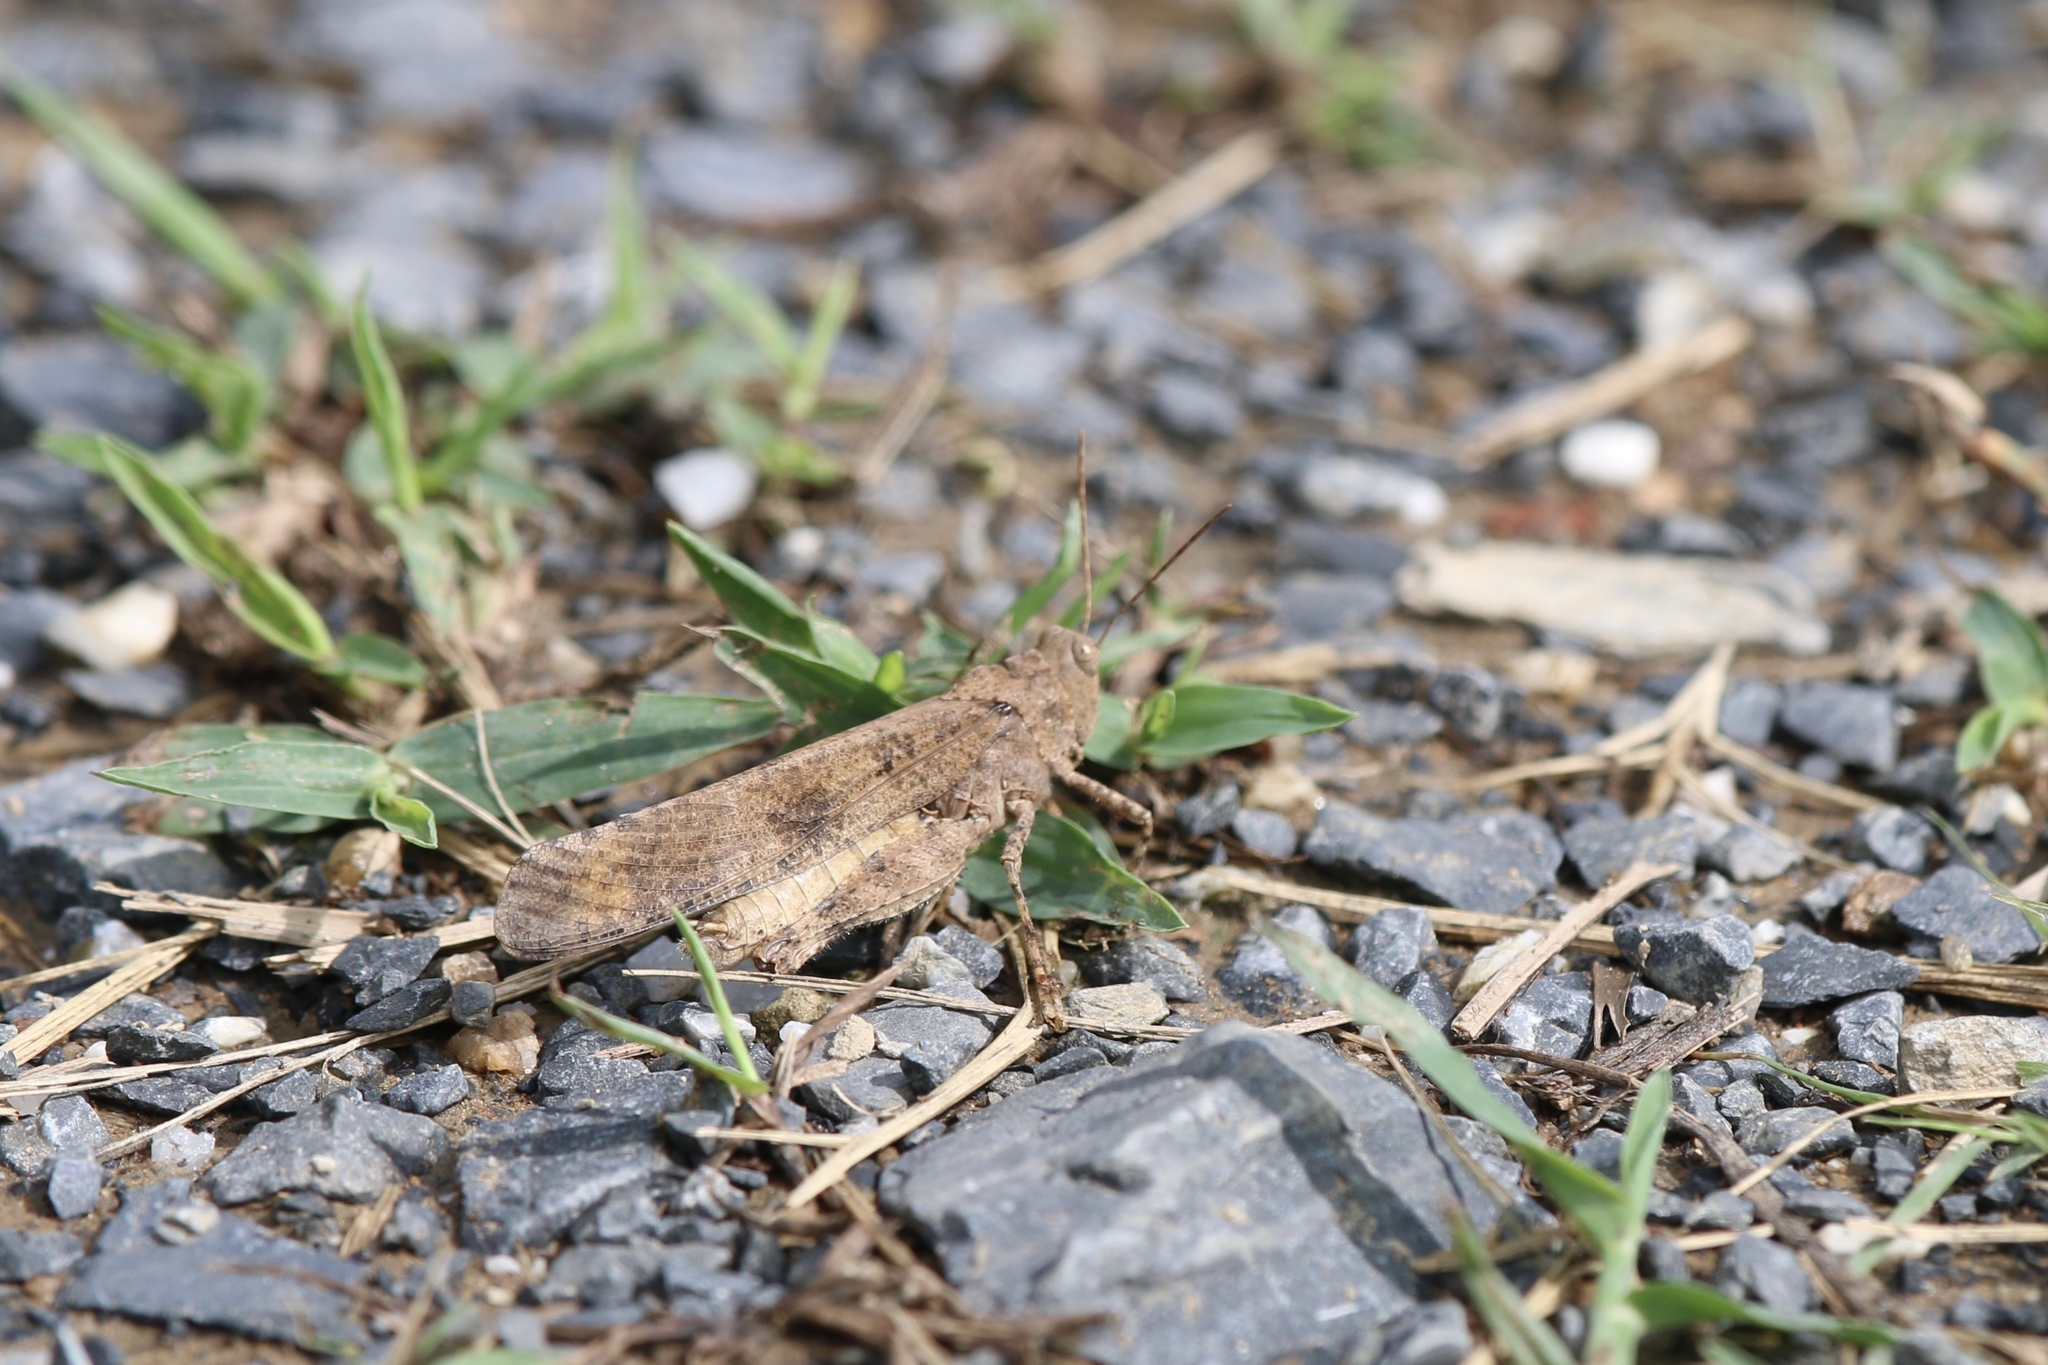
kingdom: Animalia
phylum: Arthropoda
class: Insecta
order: Orthoptera
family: Acrididae
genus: Dissosteira
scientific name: Dissosteira carolina
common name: Carolina grasshopper
